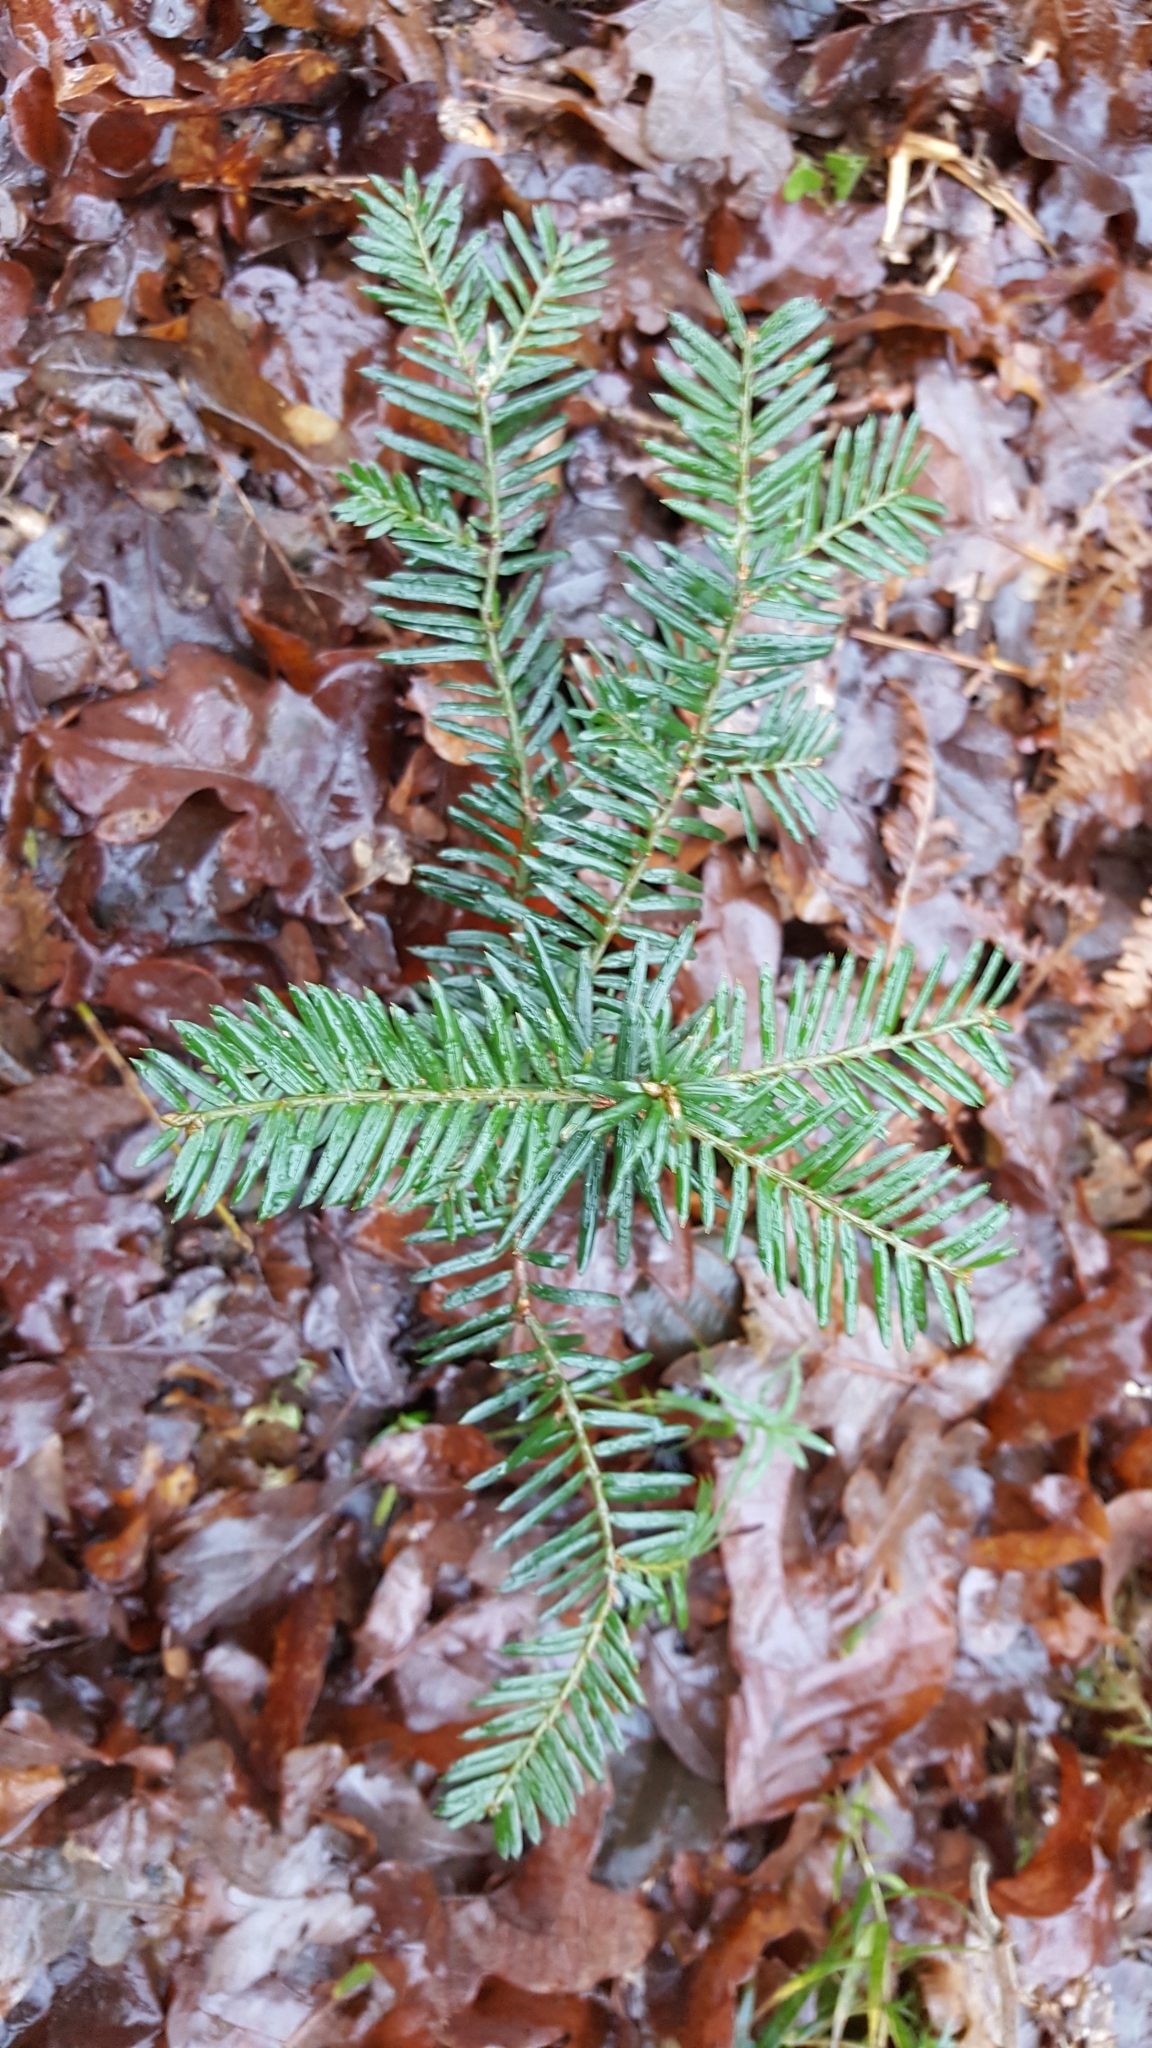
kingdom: Plantae
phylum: Tracheophyta
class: Pinopsida
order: Pinales
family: Taxaceae
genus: Taxus
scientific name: Taxus baccata
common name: Yew
